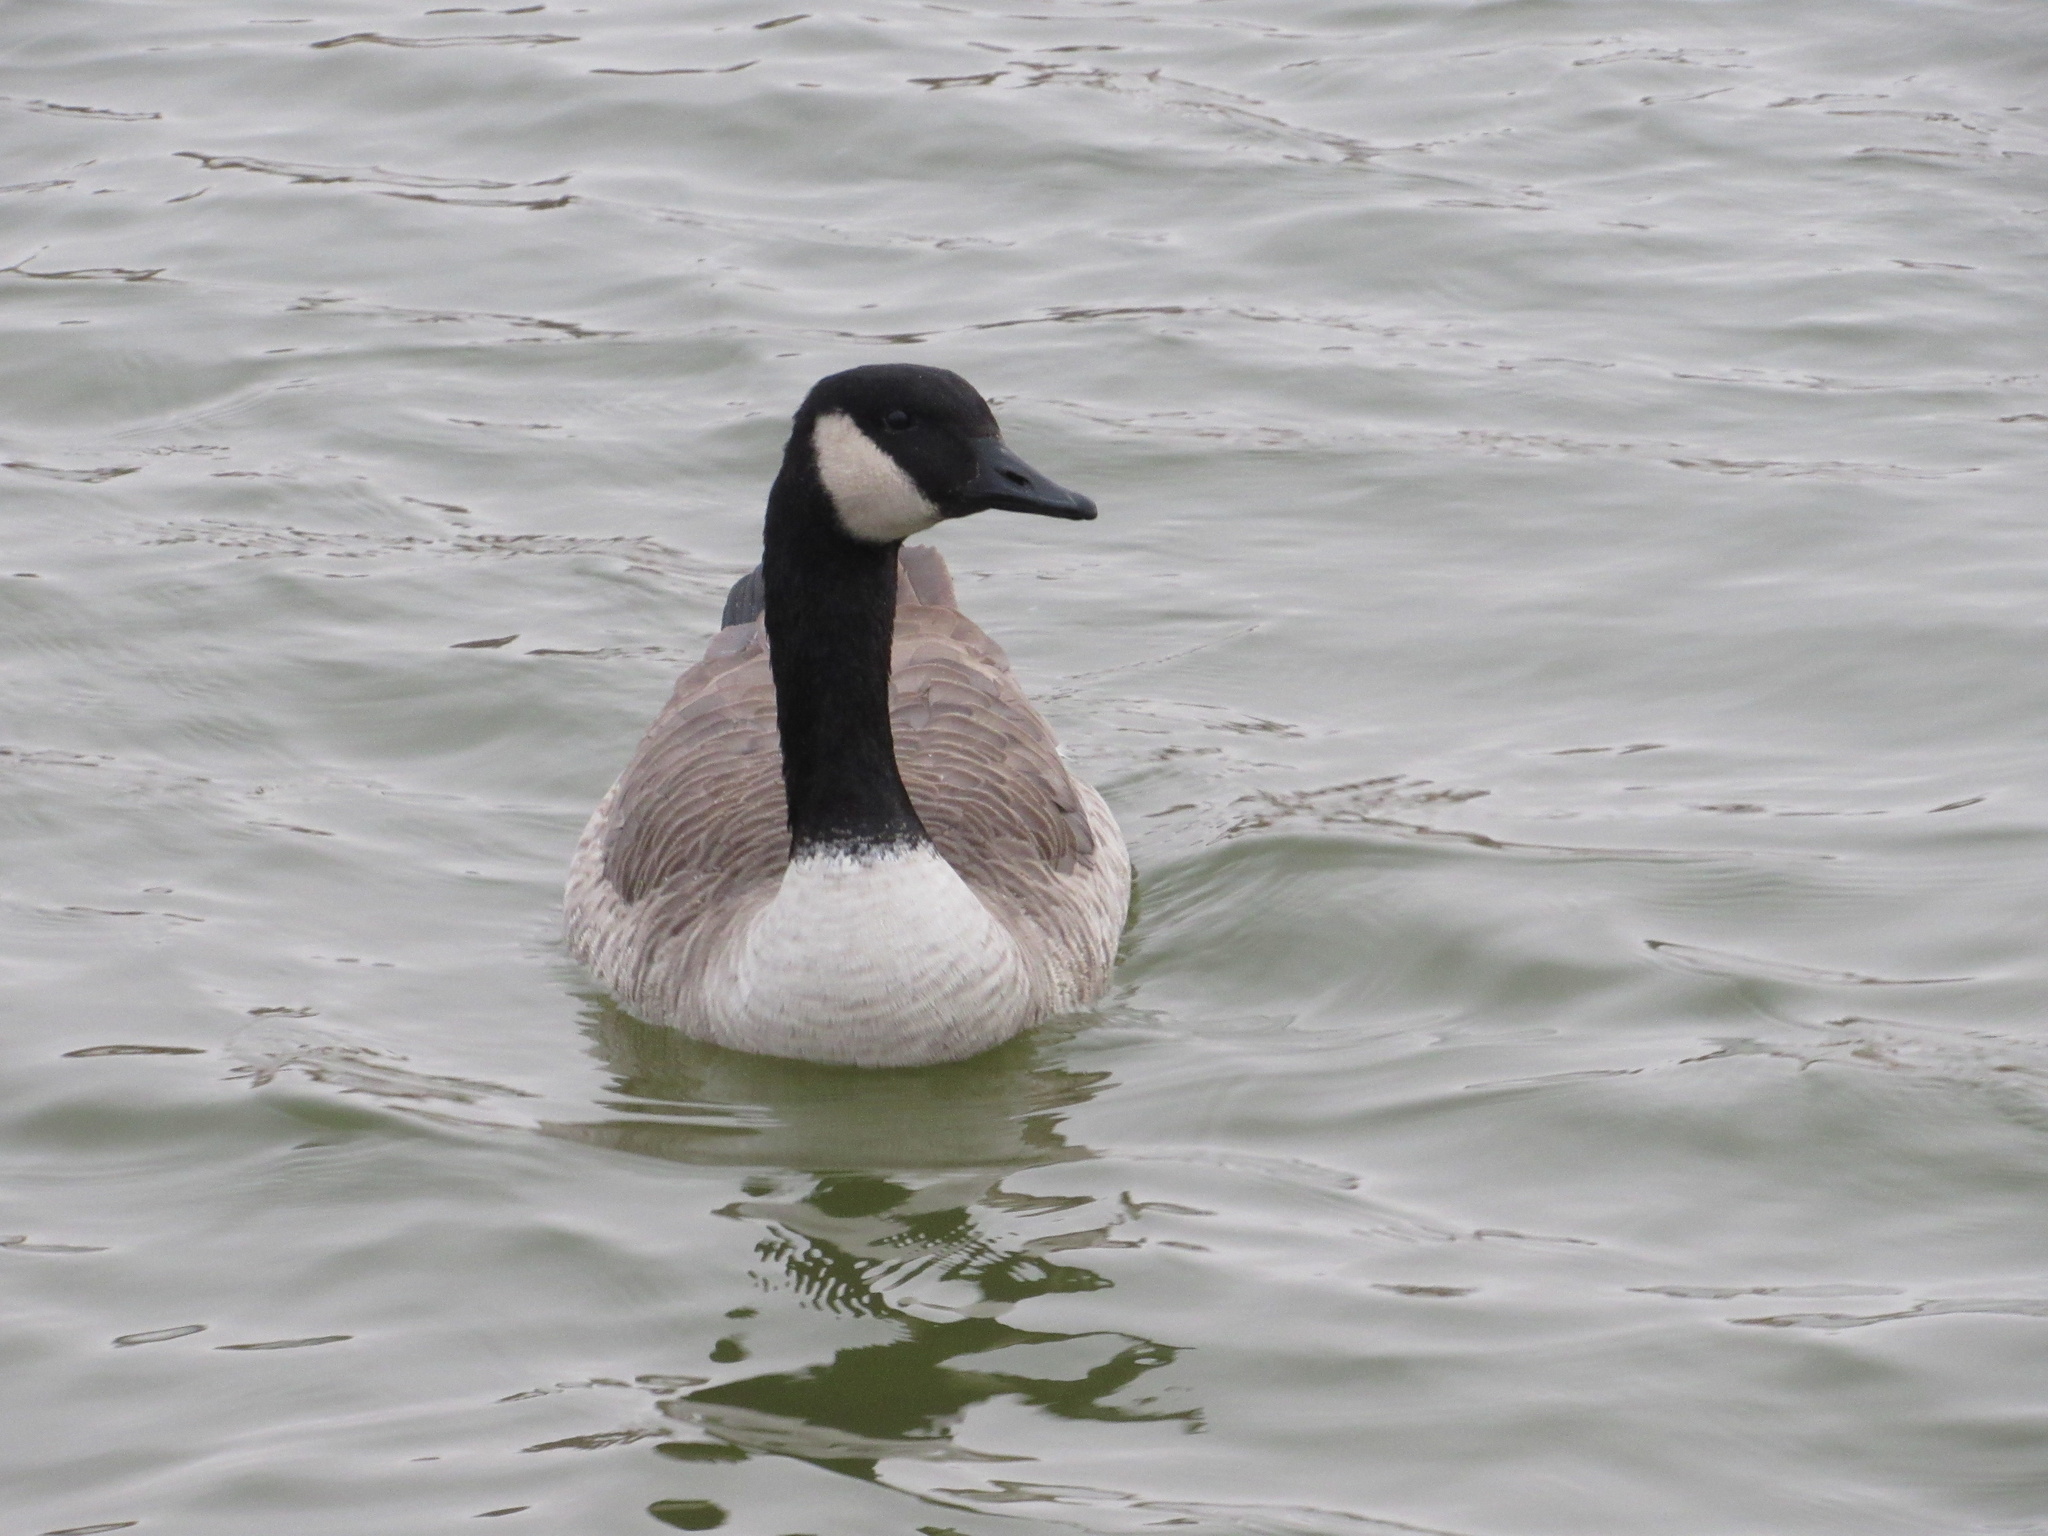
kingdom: Animalia
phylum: Chordata
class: Aves
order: Anseriformes
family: Anatidae
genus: Branta
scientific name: Branta canadensis
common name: Canada goose
